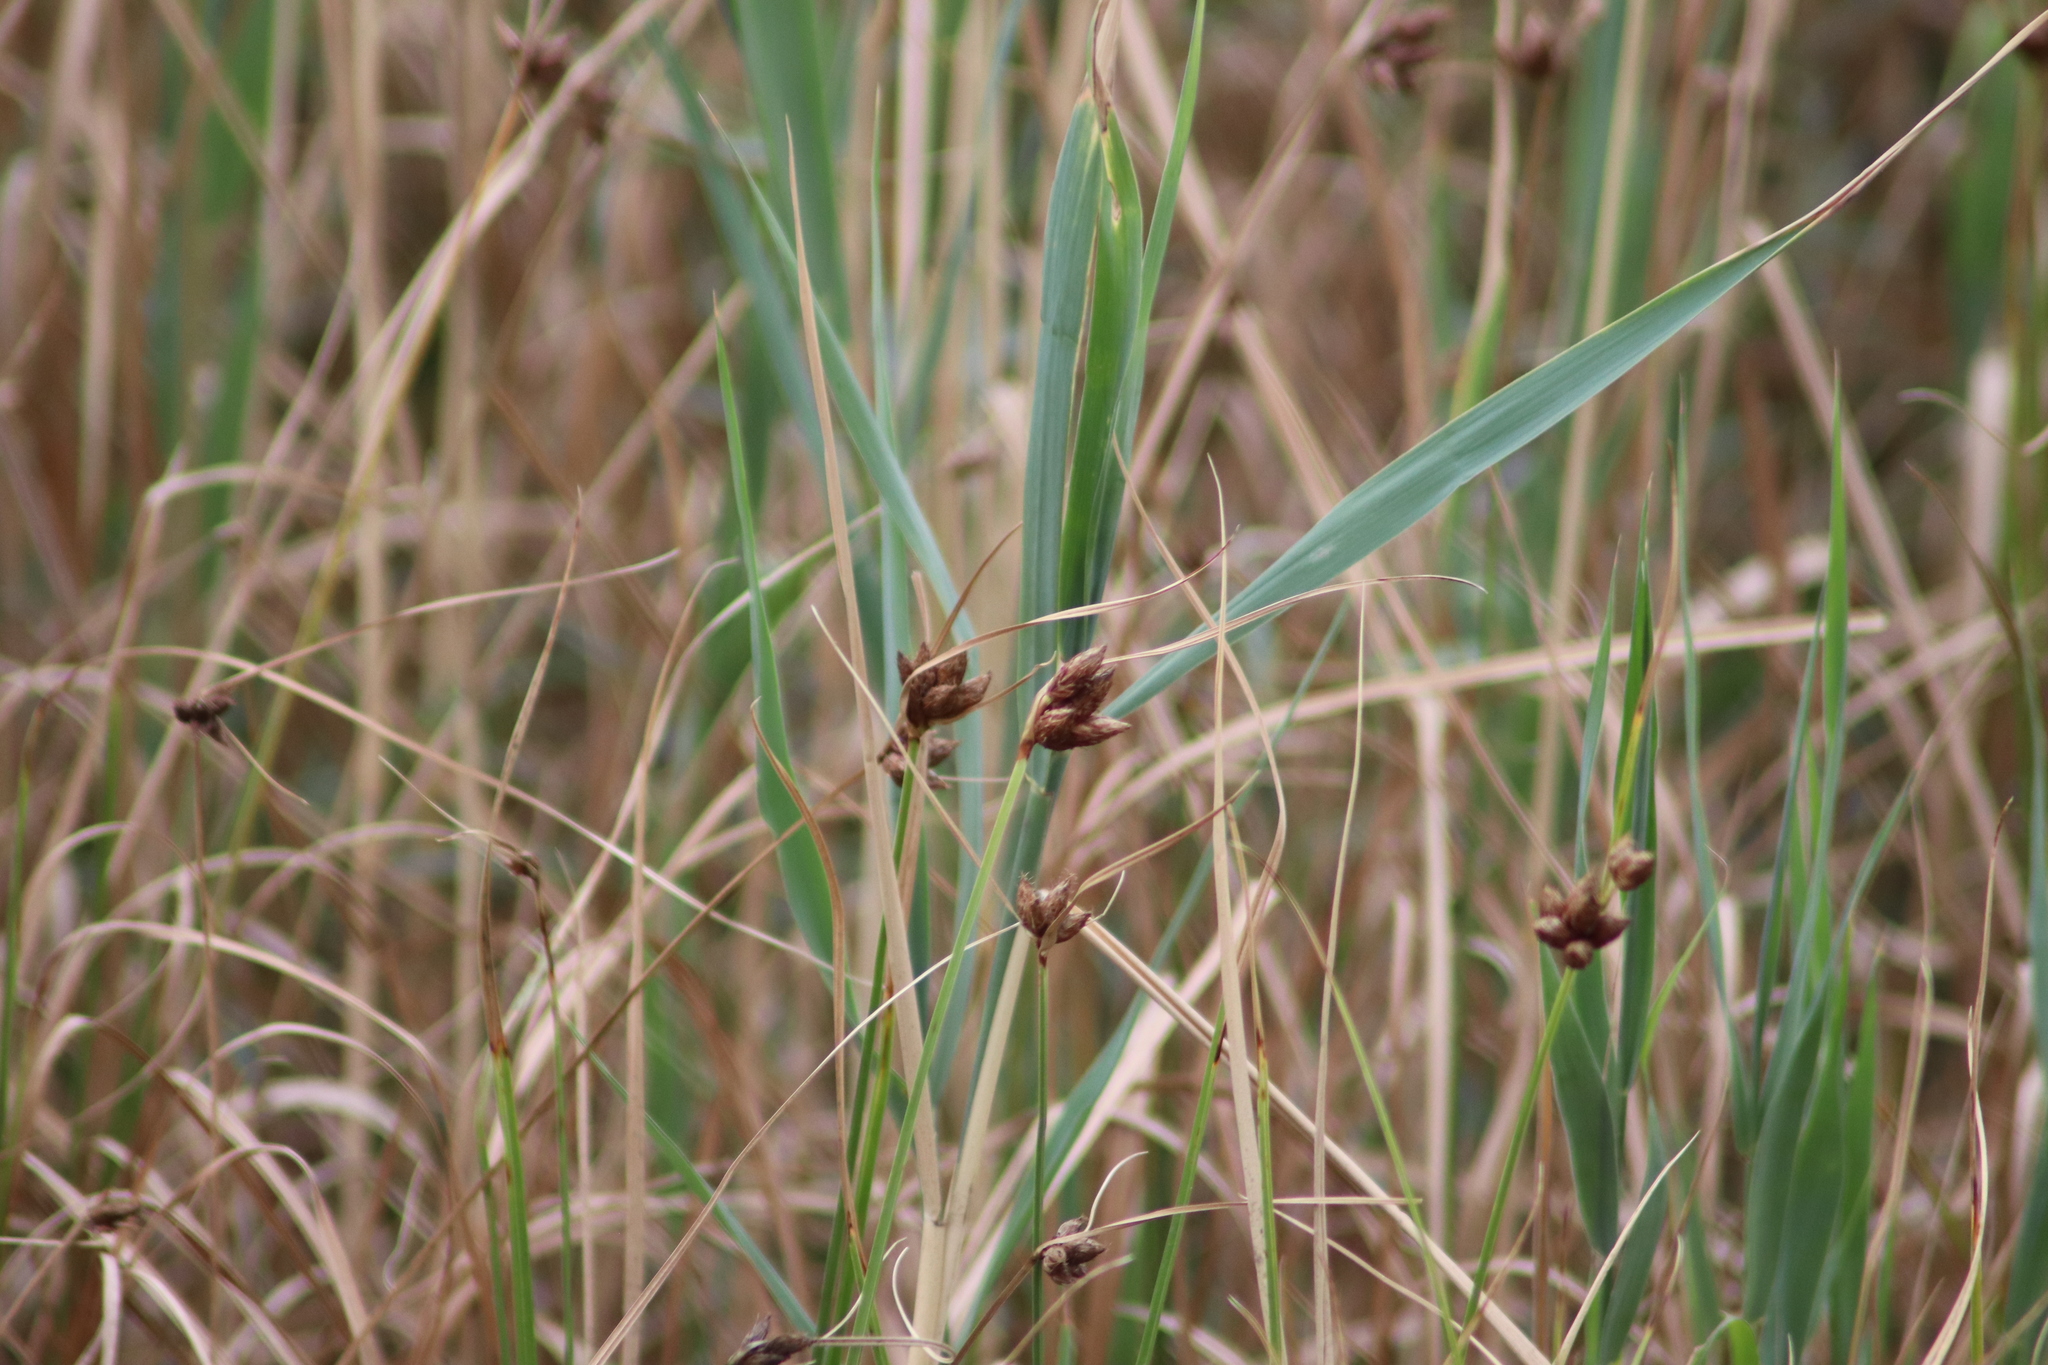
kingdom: Plantae
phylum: Tracheophyta
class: Liliopsida
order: Poales
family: Cyperaceae
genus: Bolboschoenus
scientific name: Bolboschoenus maritimus
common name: Sea club-rush
